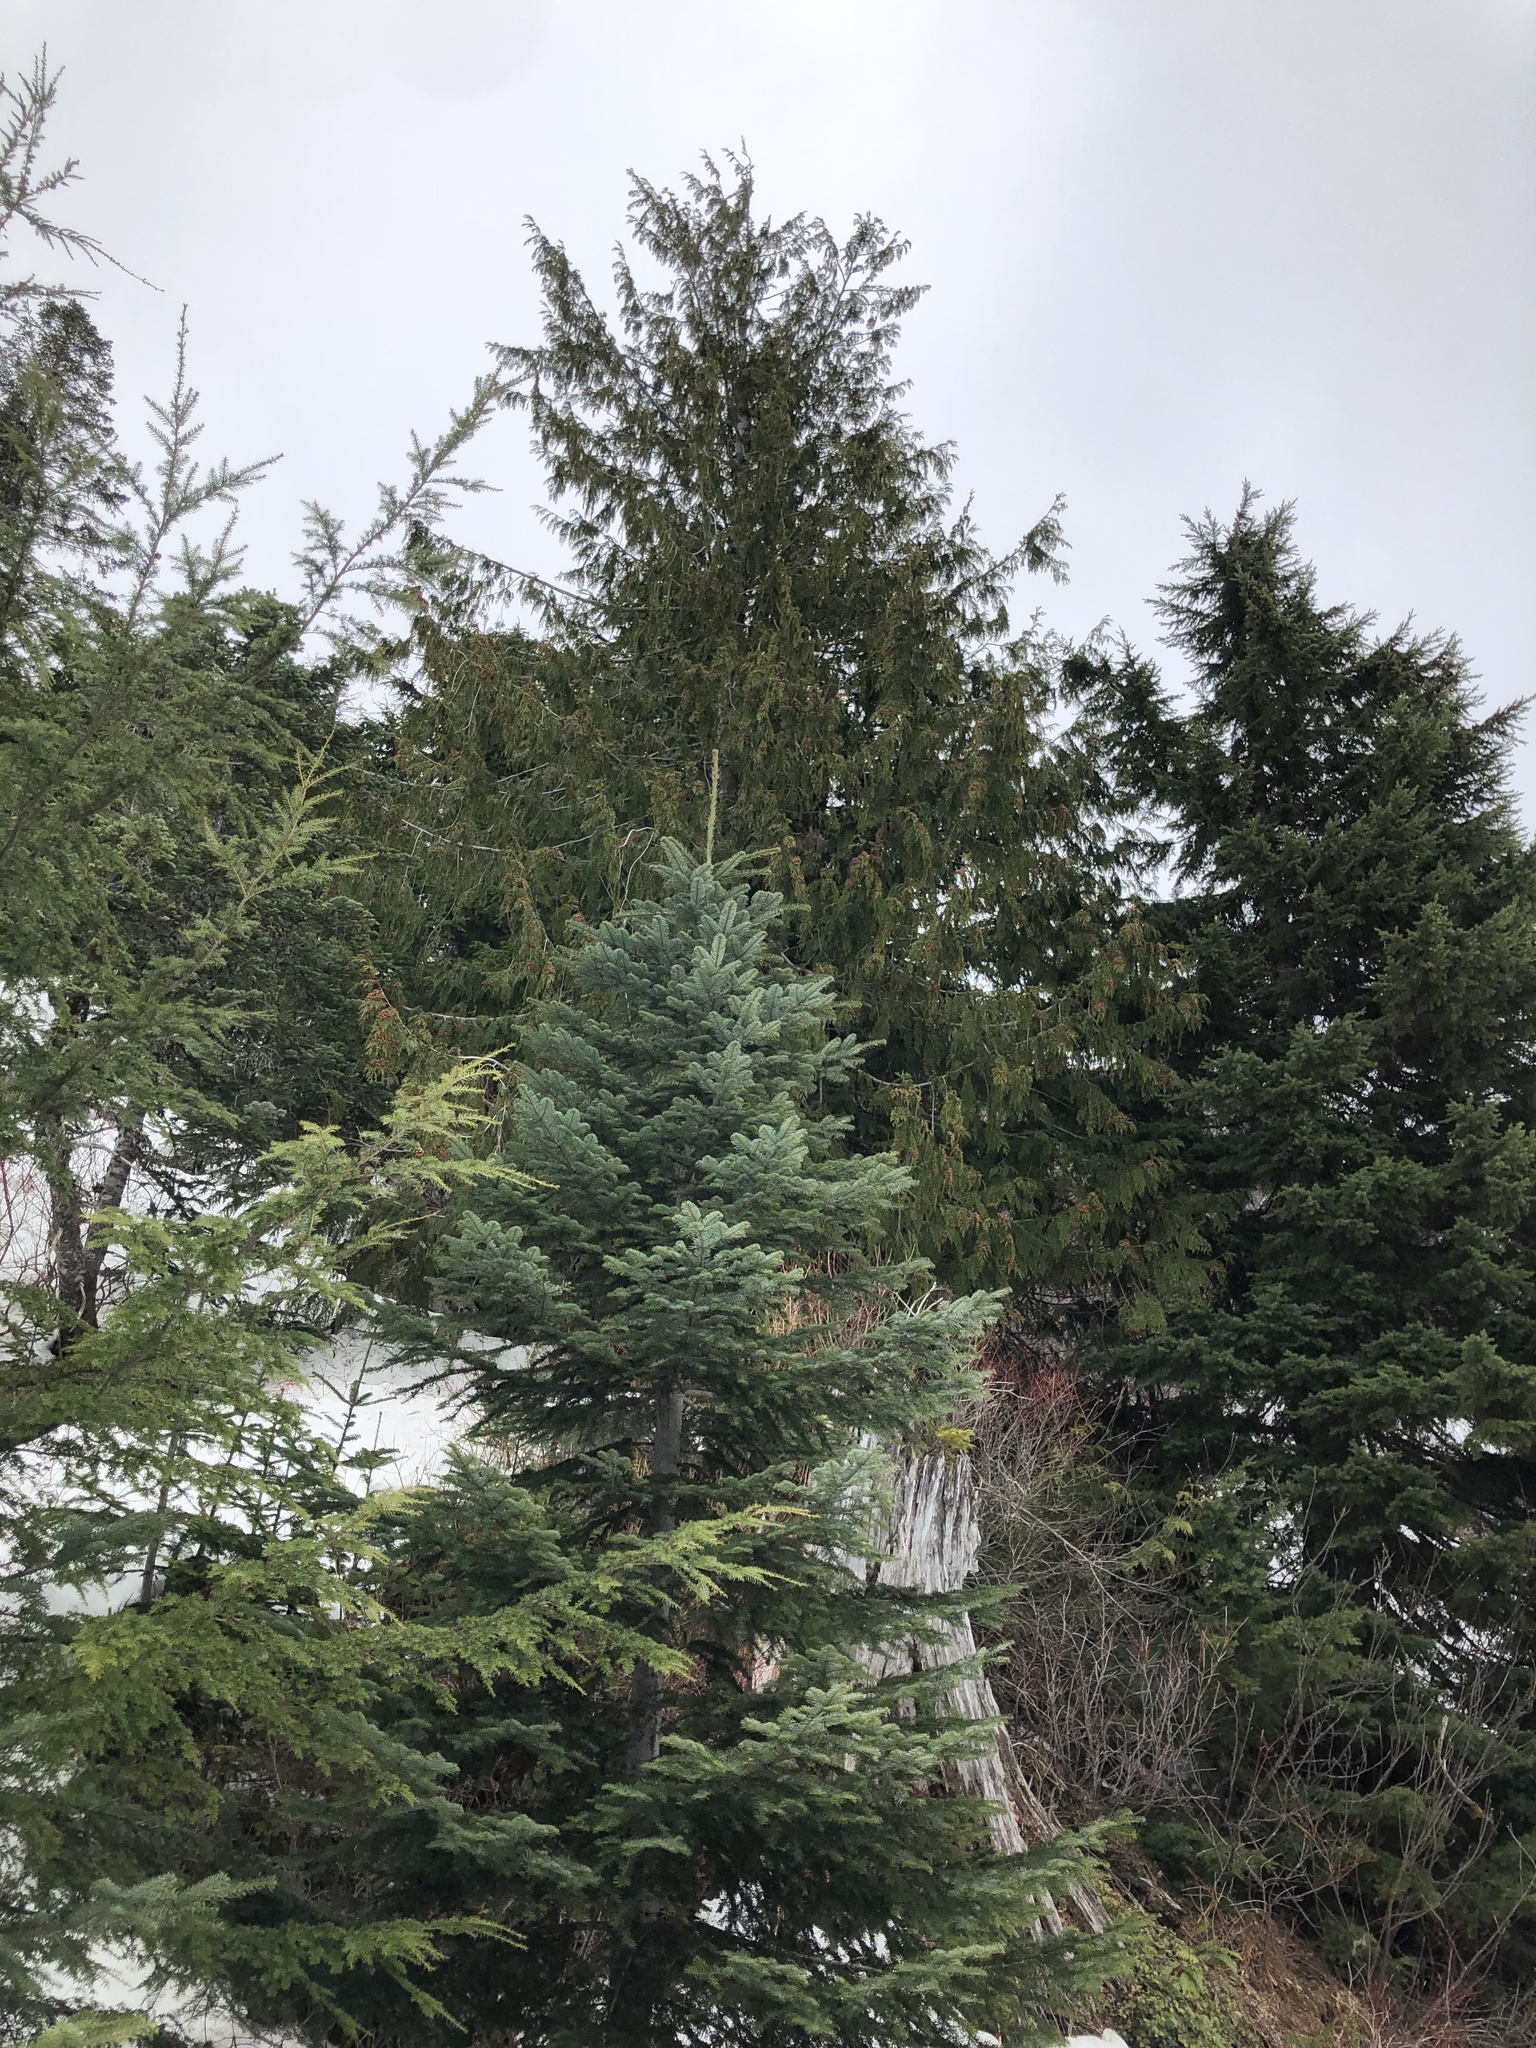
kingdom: Plantae
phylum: Tracheophyta
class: Pinopsida
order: Pinales
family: Cupressaceae
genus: Thuja
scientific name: Thuja plicata
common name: Western red-cedar
